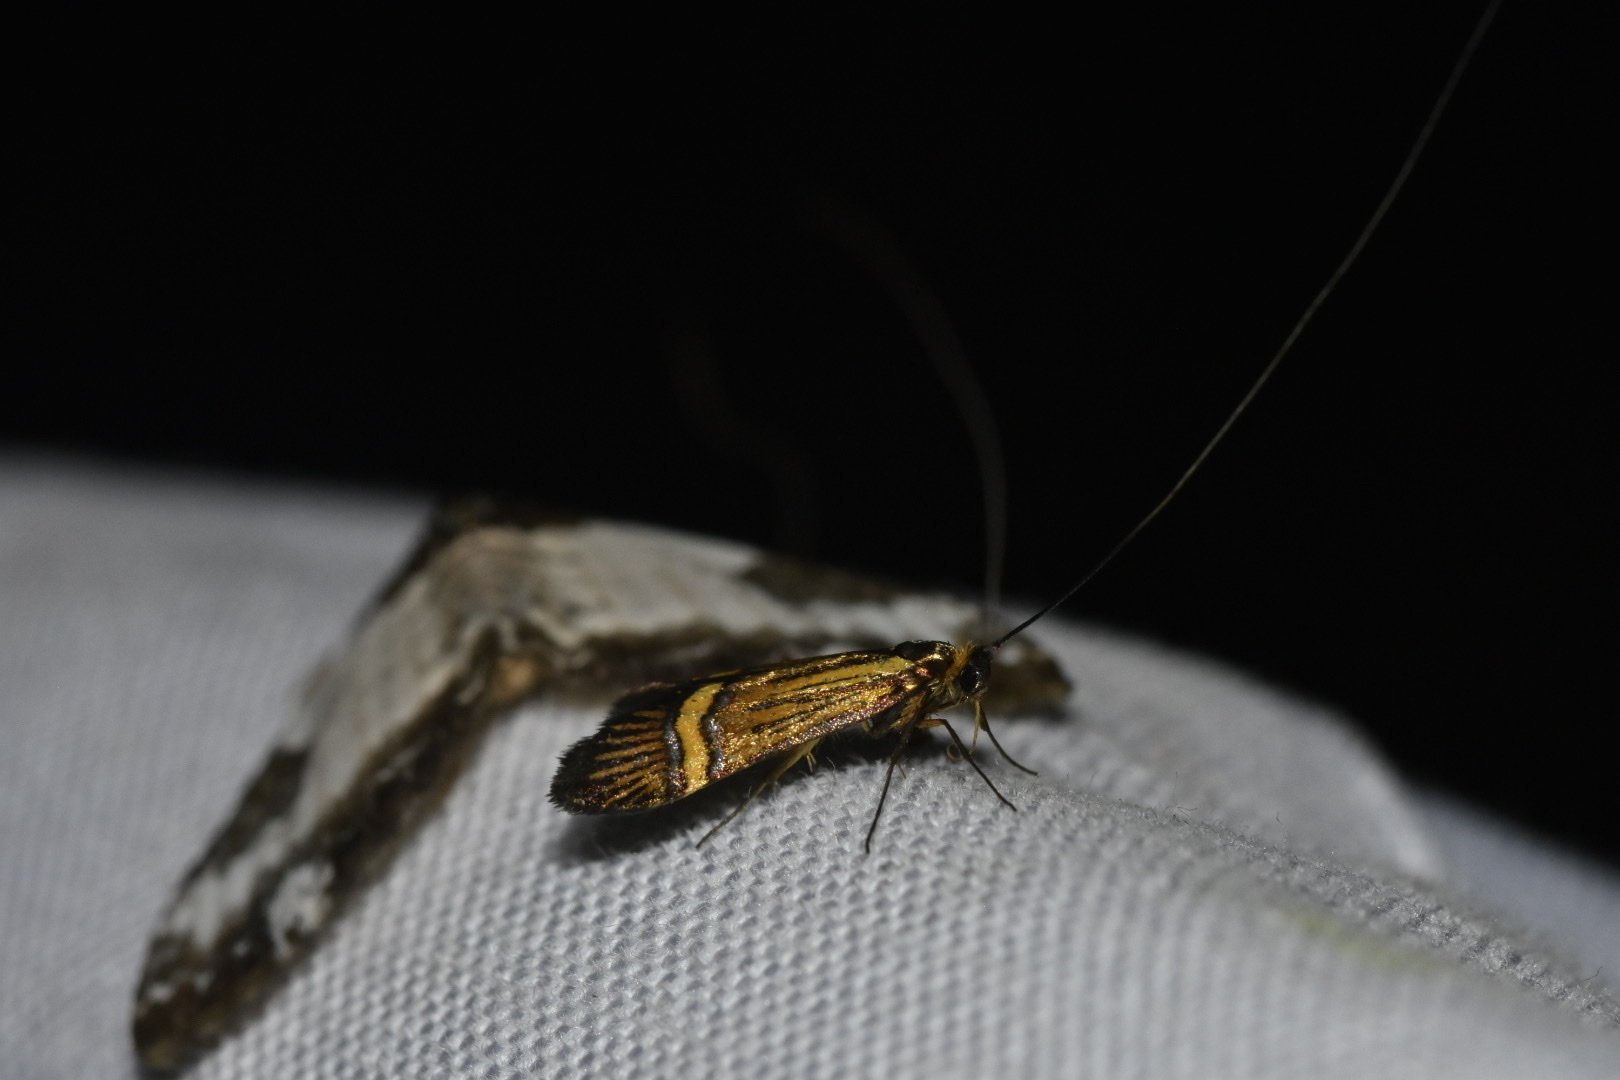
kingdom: Animalia
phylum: Arthropoda
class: Insecta
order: Lepidoptera
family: Adelidae
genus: Nemophora
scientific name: Nemophora
